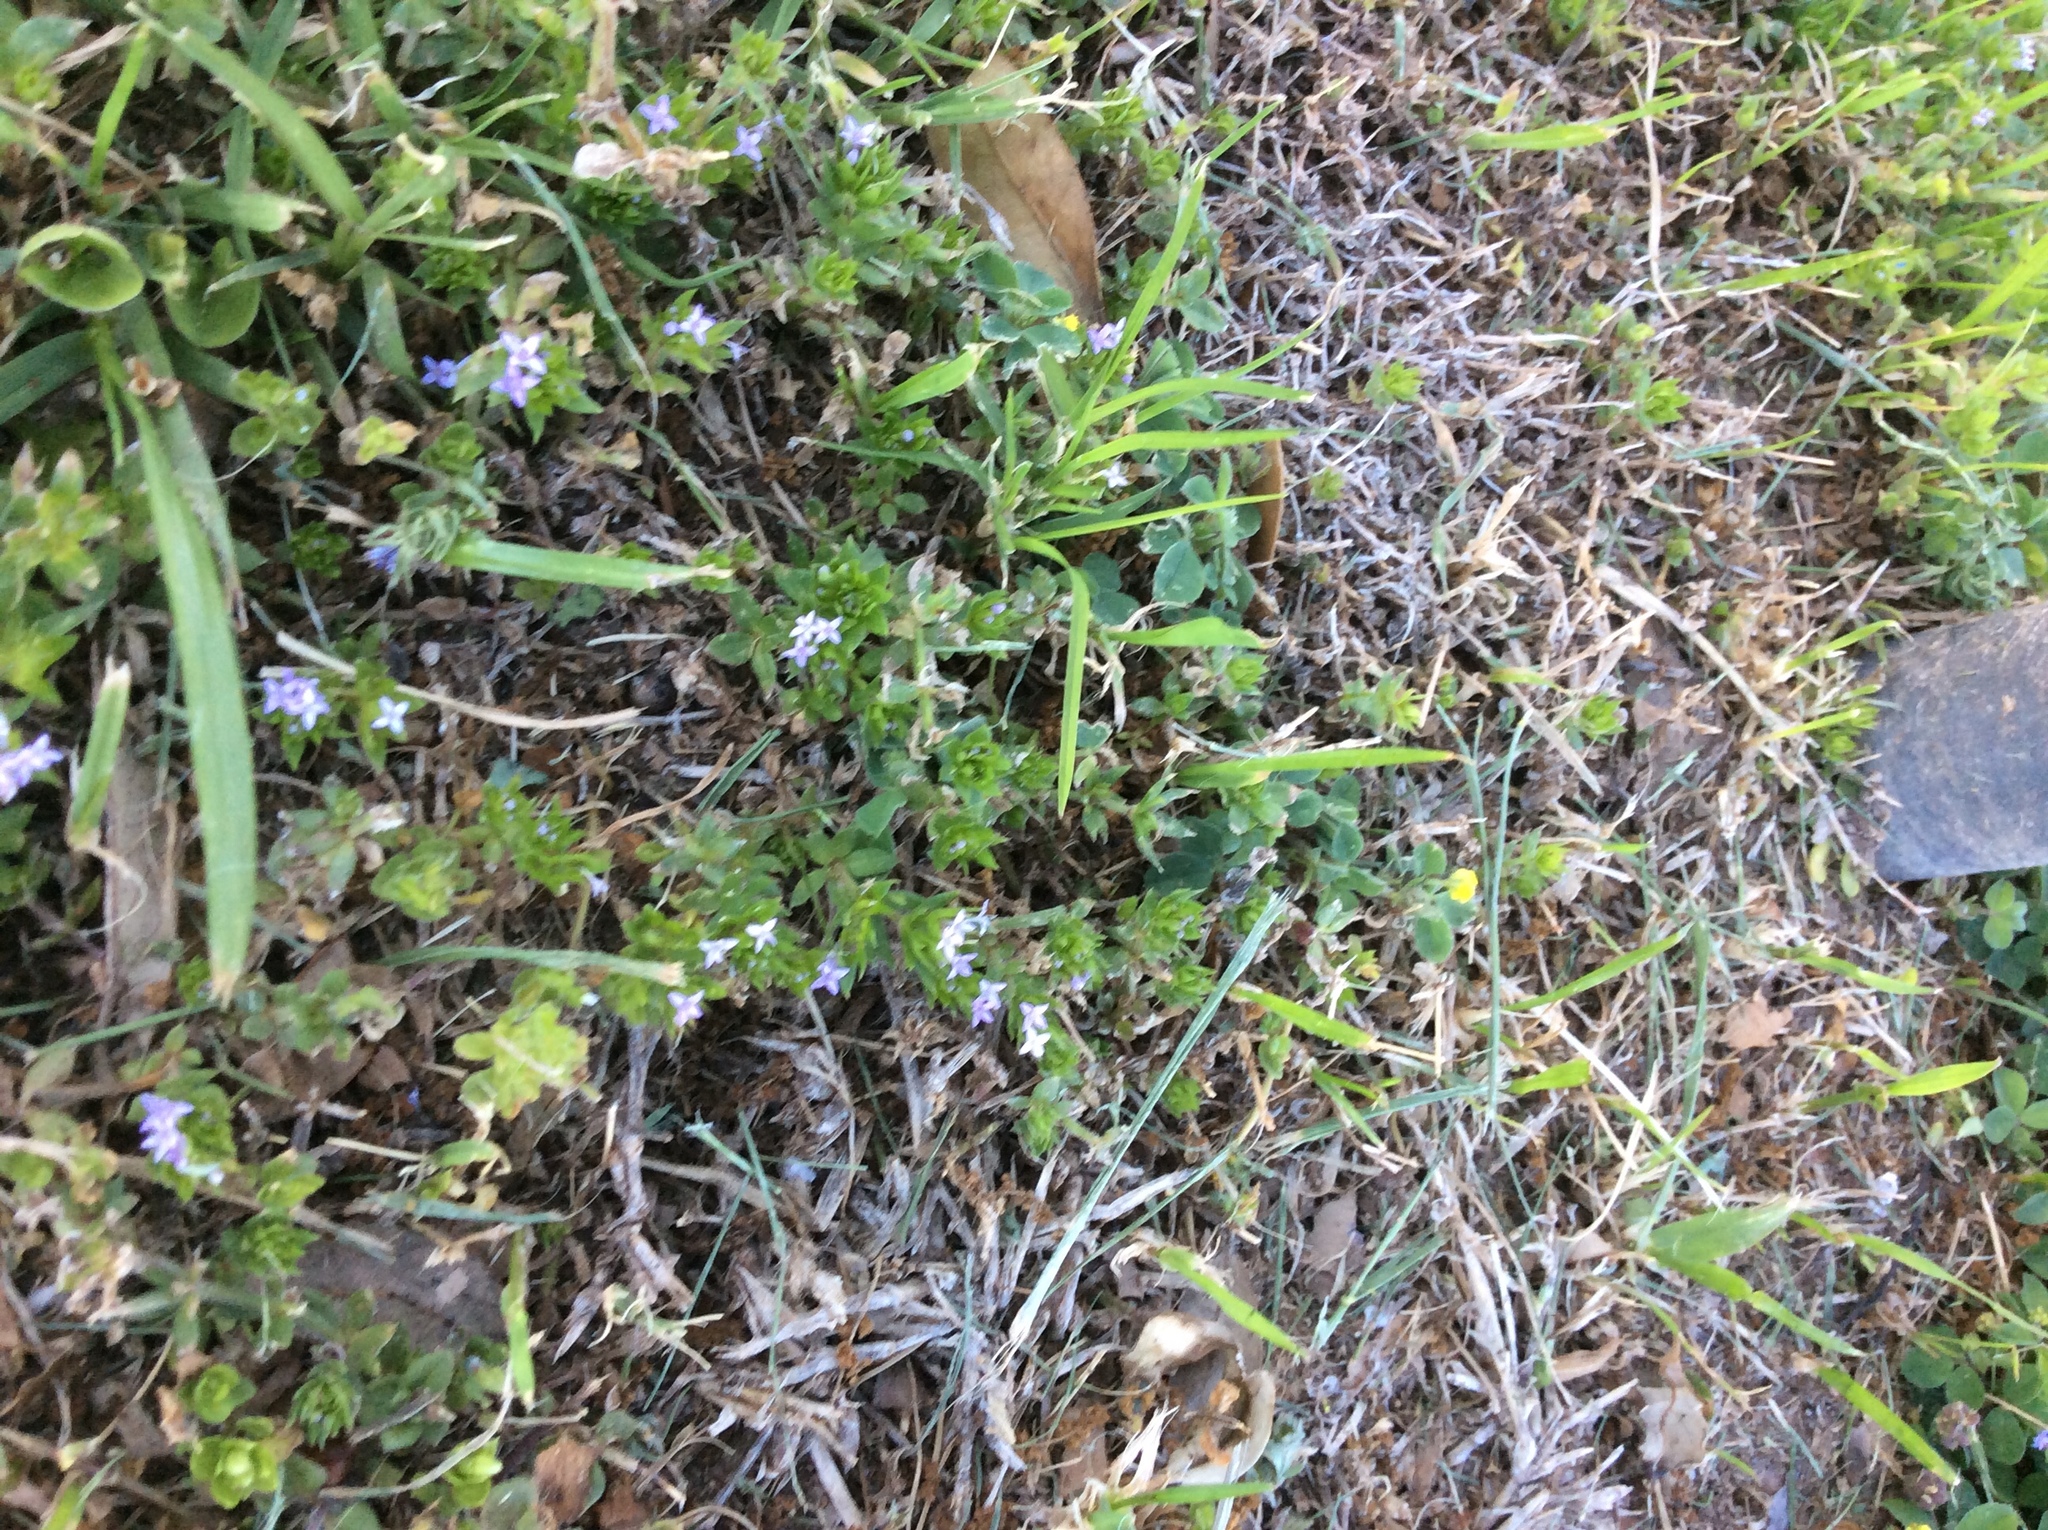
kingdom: Plantae
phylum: Tracheophyta
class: Magnoliopsida
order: Gentianales
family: Rubiaceae
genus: Sherardia
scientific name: Sherardia arvensis
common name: Field madder
